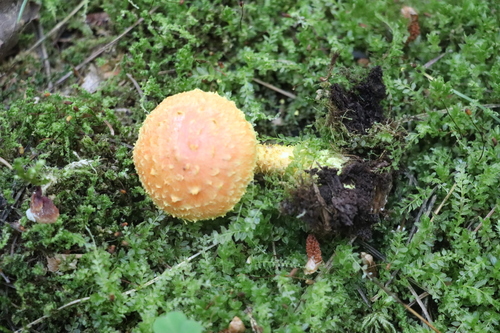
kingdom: Fungi
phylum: Basidiomycota
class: Agaricomycetes
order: Agaricales
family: Strophariaceae
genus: Pholiota
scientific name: Pholiota flammans
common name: Flaming scalycap
